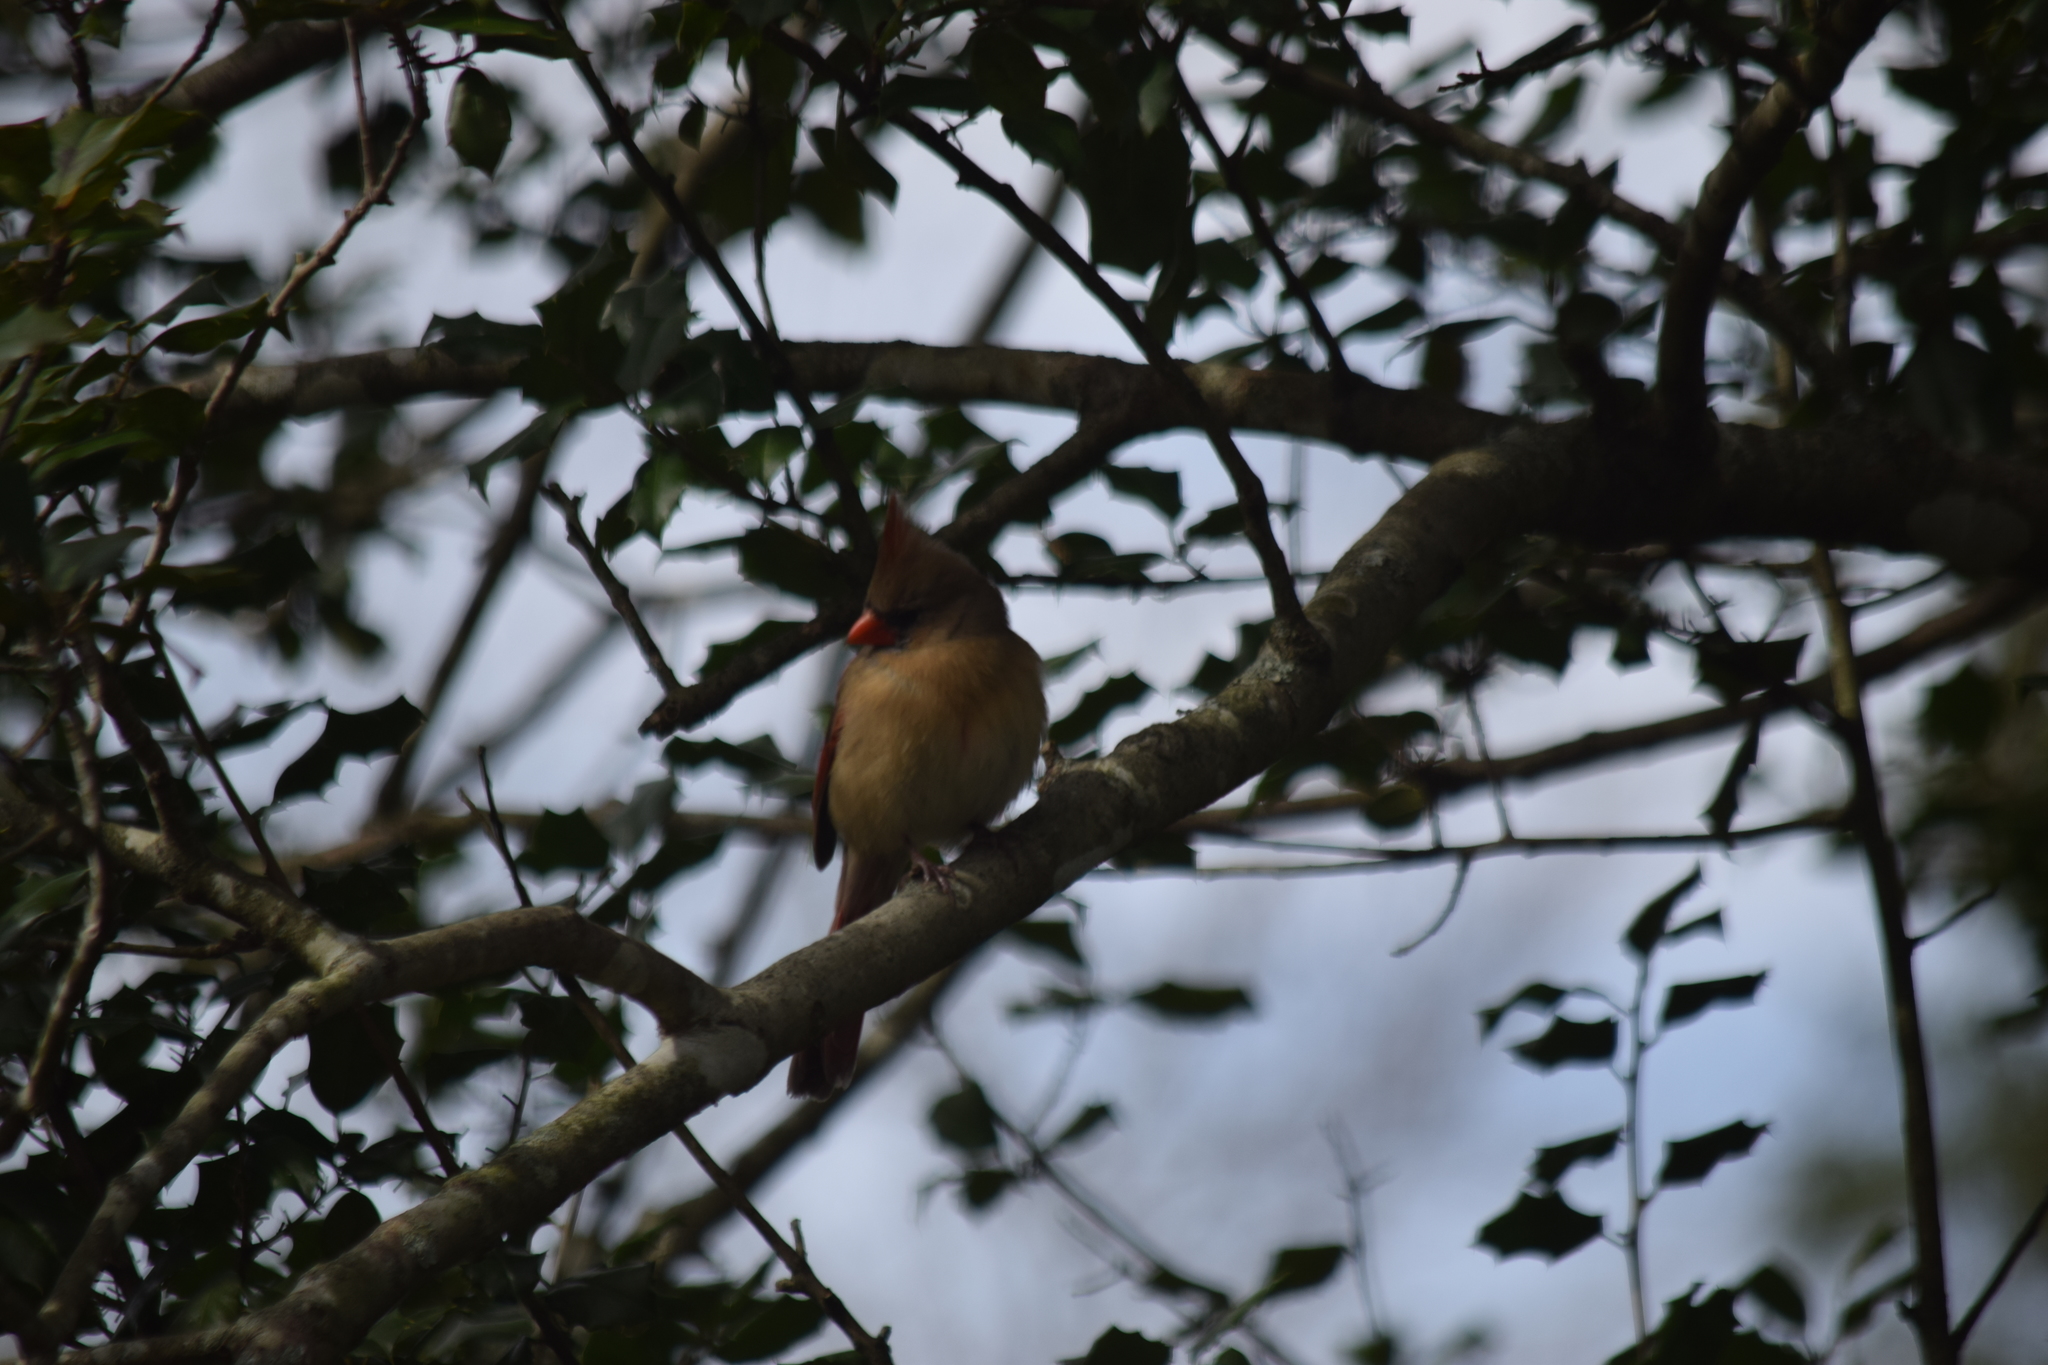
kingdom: Animalia
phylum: Chordata
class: Aves
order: Passeriformes
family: Cardinalidae
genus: Cardinalis
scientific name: Cardinalis cardinalis
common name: Northern cardinal
